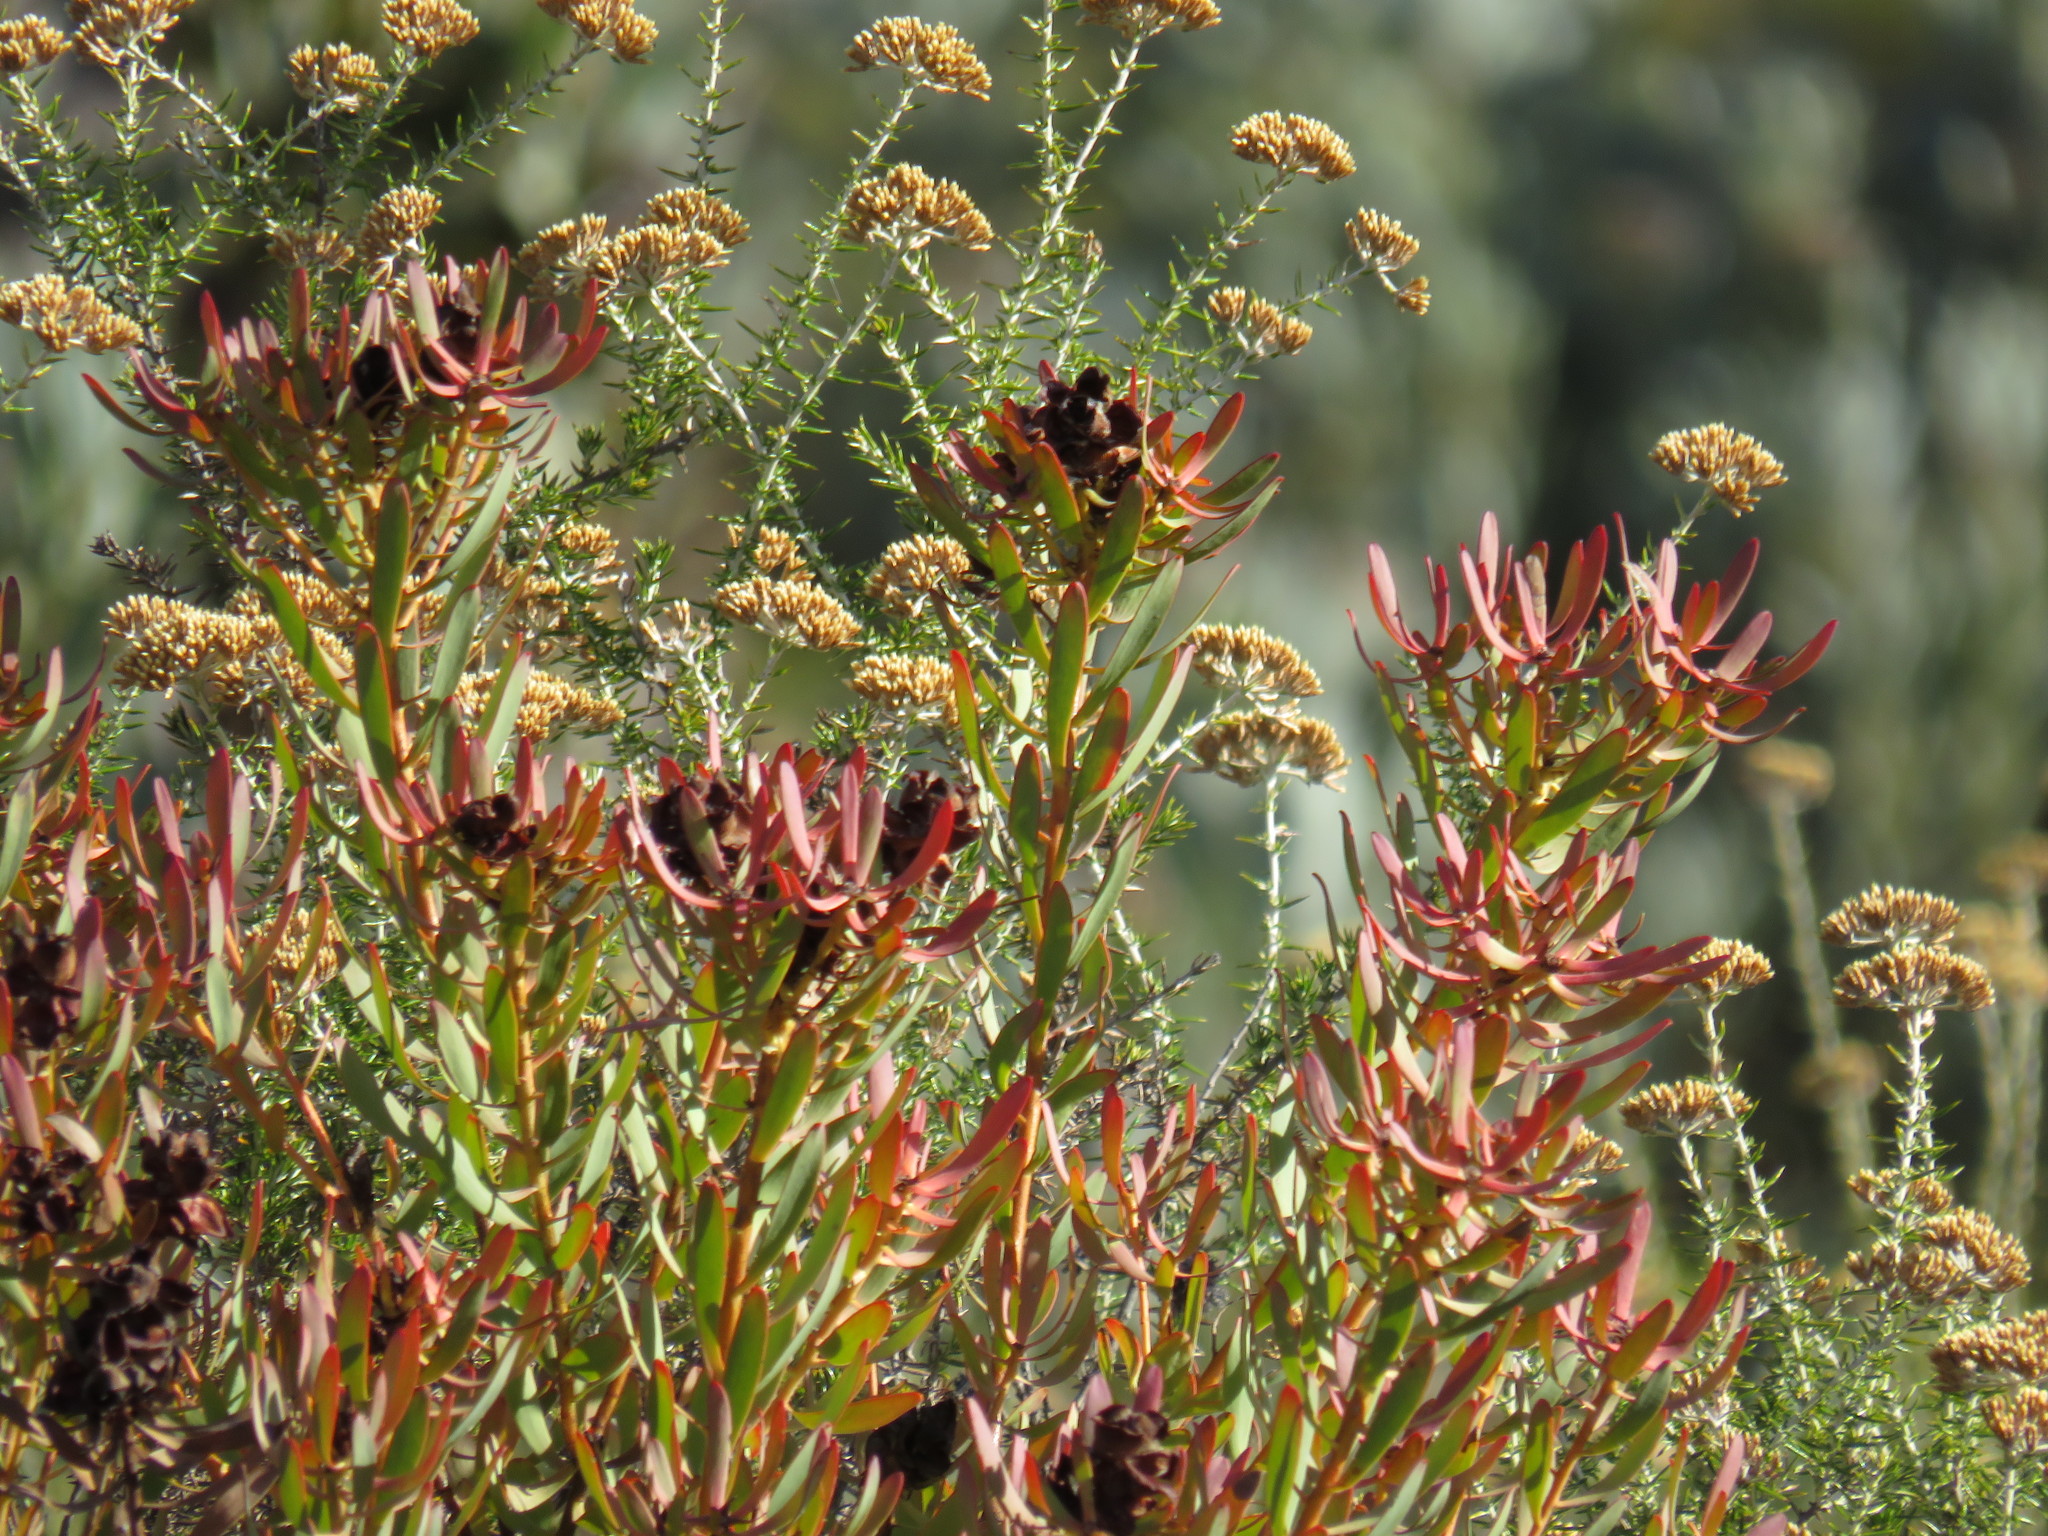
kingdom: Plantae
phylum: Tracheophyta
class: Magnoliopsida
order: Proteales
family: Proteaceae
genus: Leucadendron
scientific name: Leucadendron glaberrimum
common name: Common oily conebush
